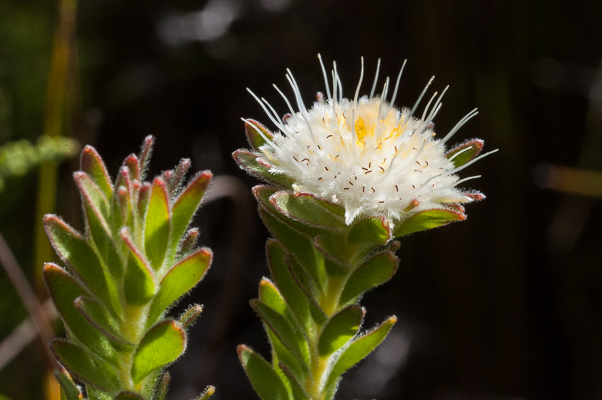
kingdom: Plantae
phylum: Tracheophyta
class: Magnoliopsida
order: Proteales
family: Proteaceae
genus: Diastella
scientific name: Diastella fraterna
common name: Palmiet silkypuff
